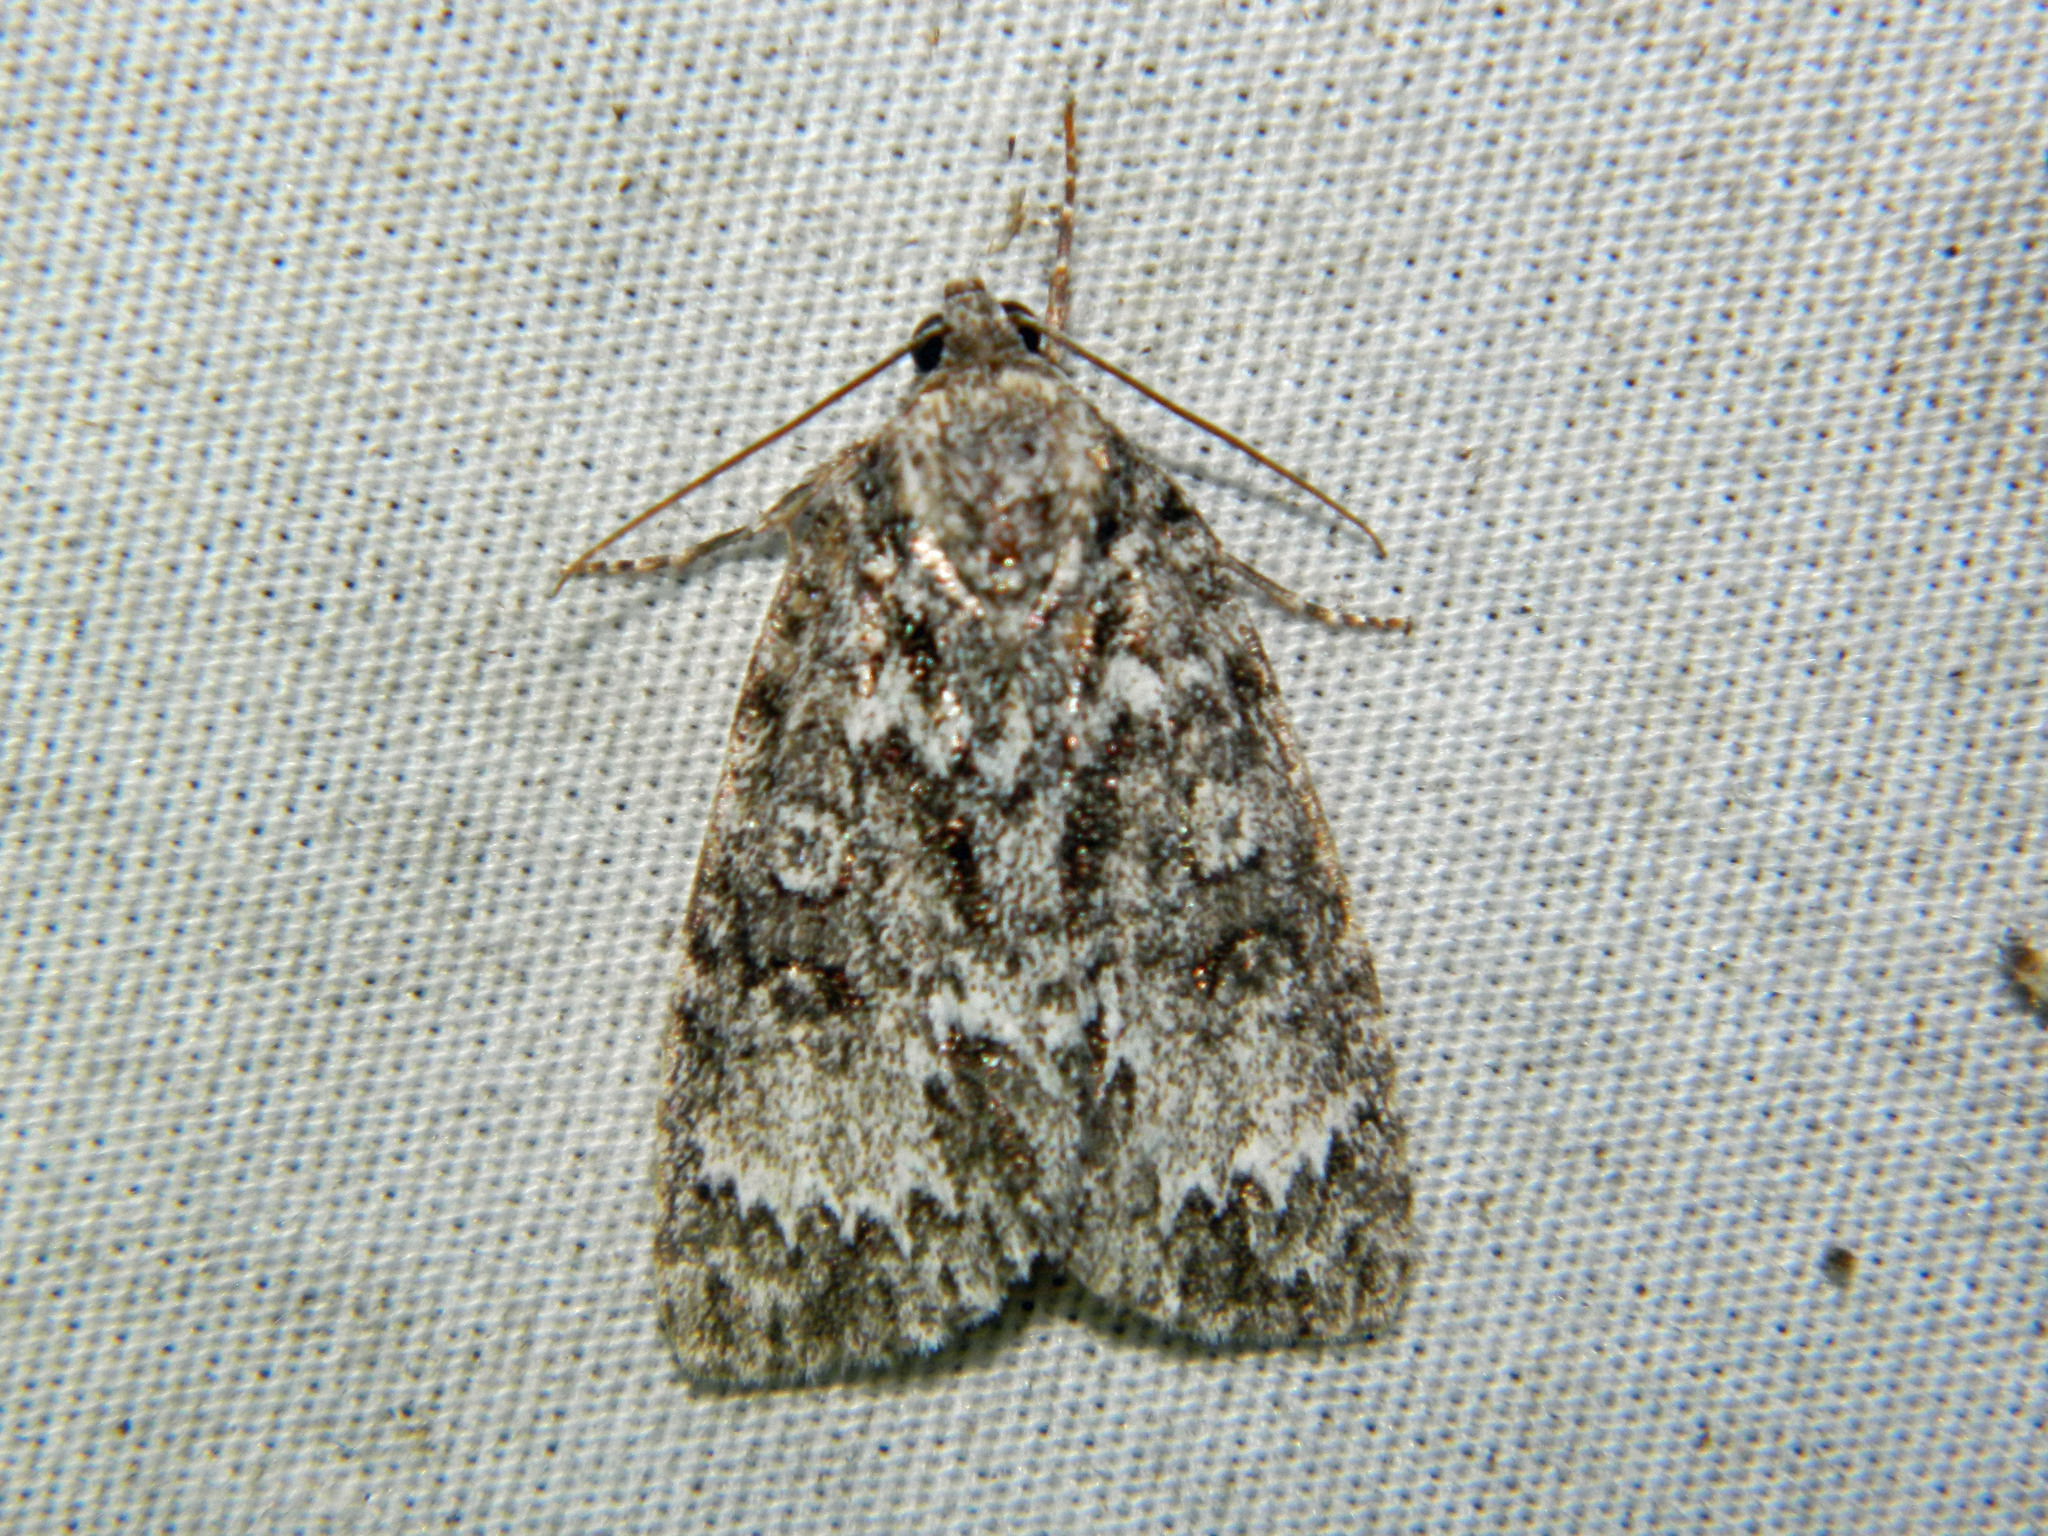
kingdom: Animalia
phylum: Arthropoda
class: Insecta
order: Lepidoptera
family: Noctuidae
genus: Acronicta
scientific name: Acronicta fragilis
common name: Fragile dagger
